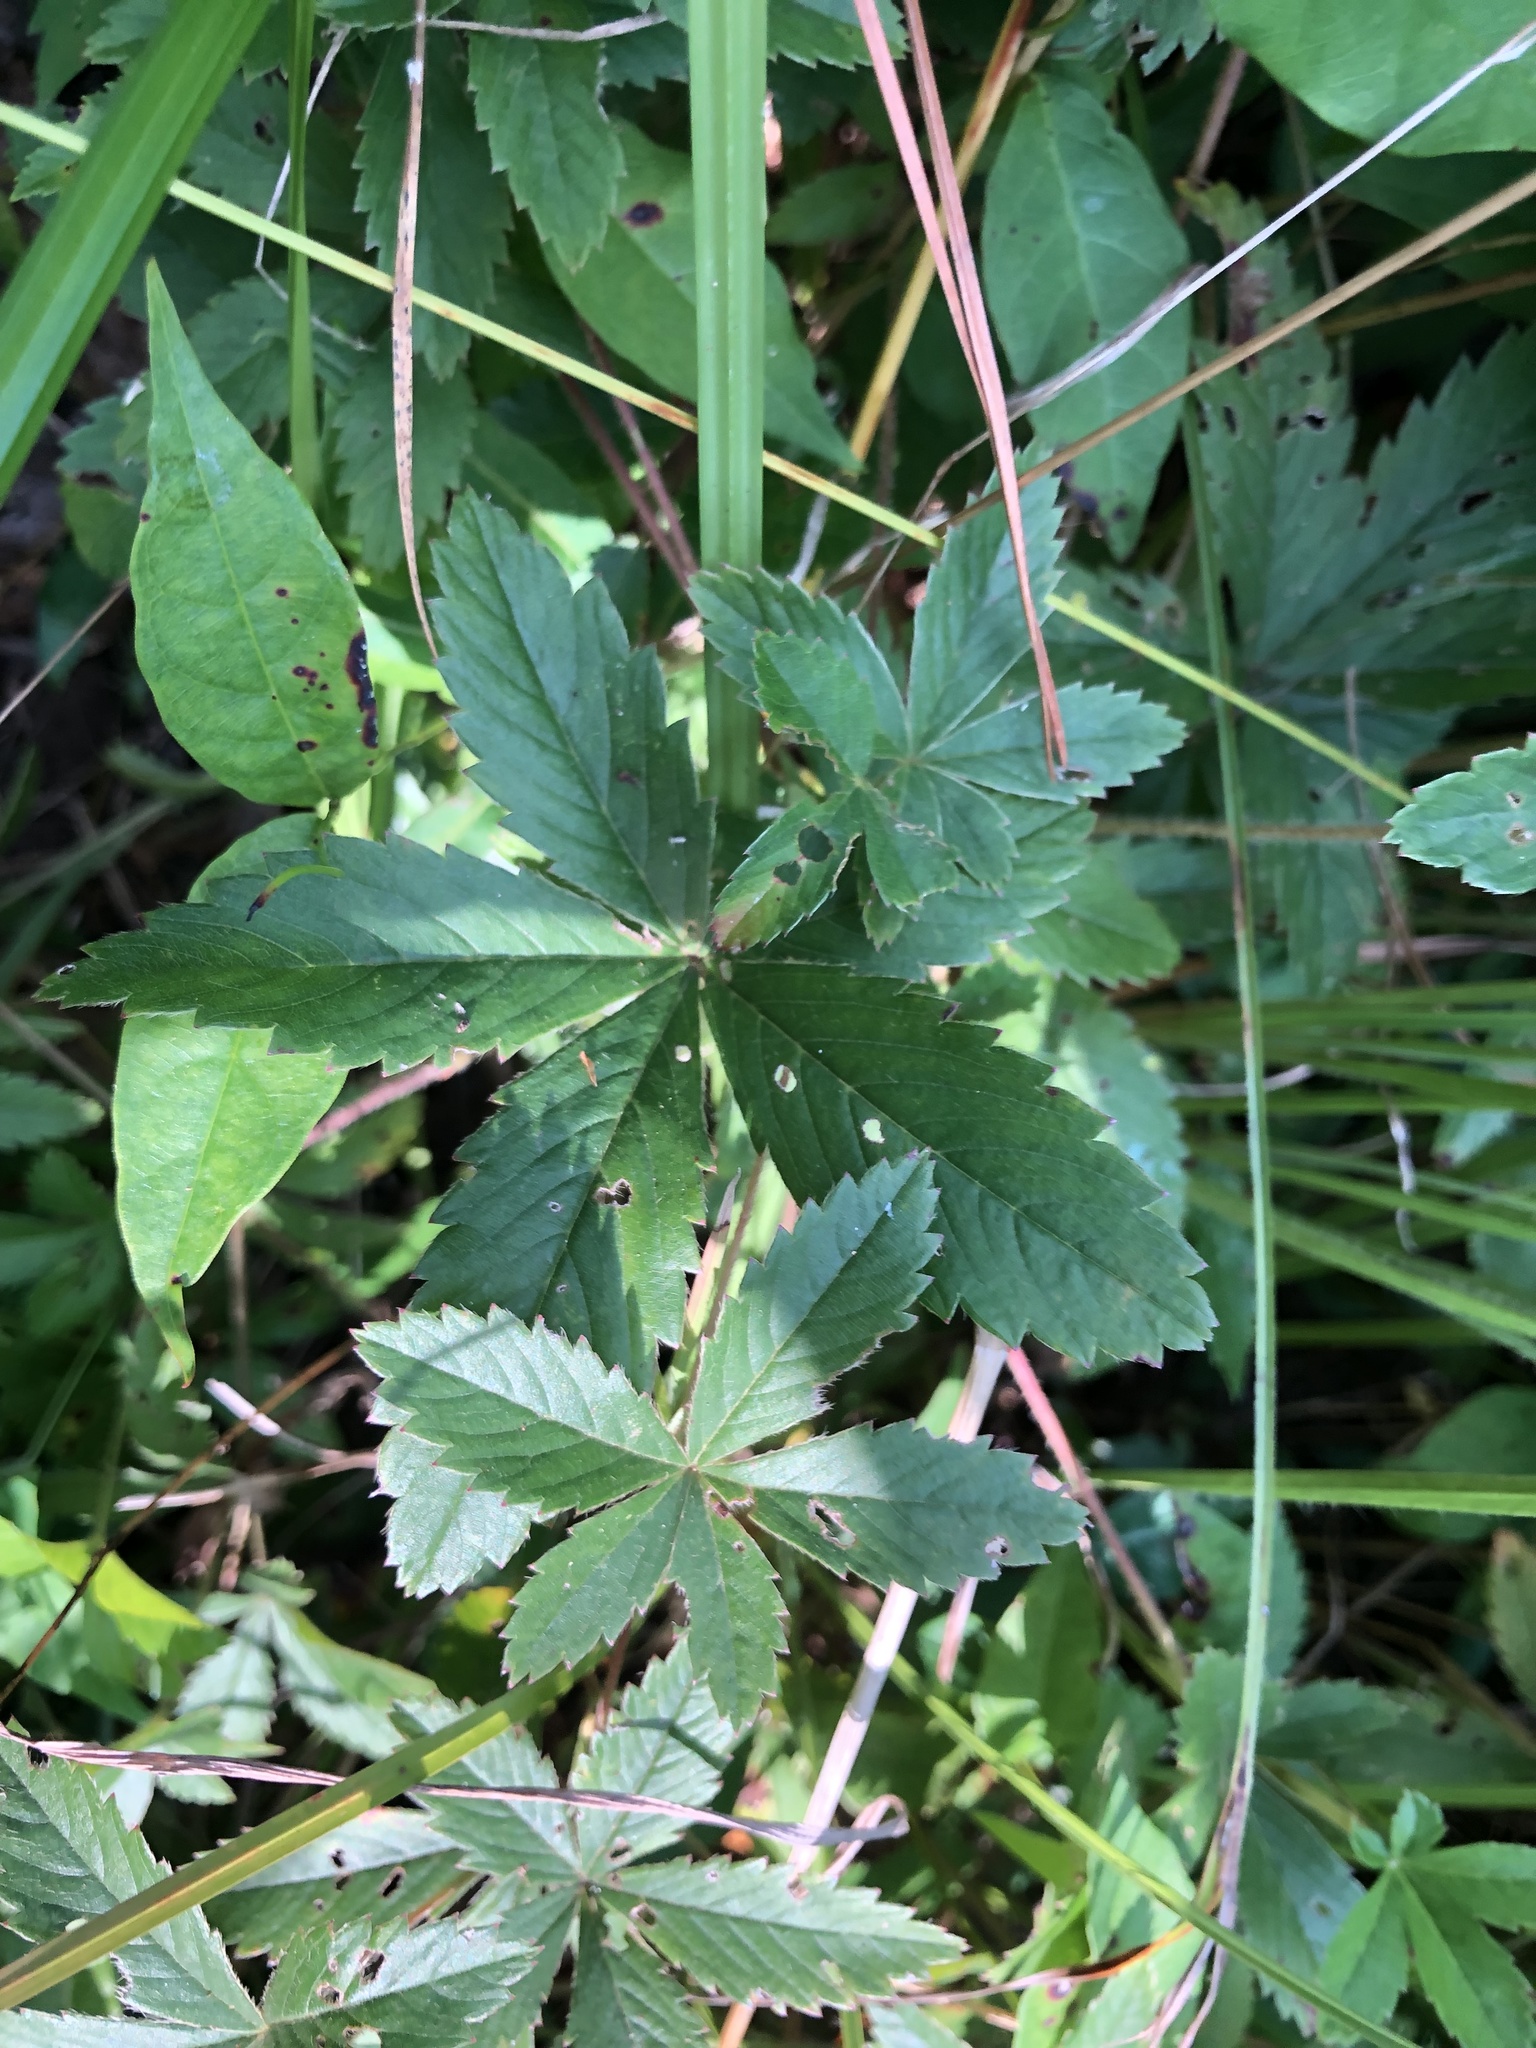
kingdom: Plantae
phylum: Tracheophyta
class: Magnoliopsida
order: Rosales
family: Rosaceae
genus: Potentilla
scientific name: Potentilla simplex
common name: Old field cinquefoil
